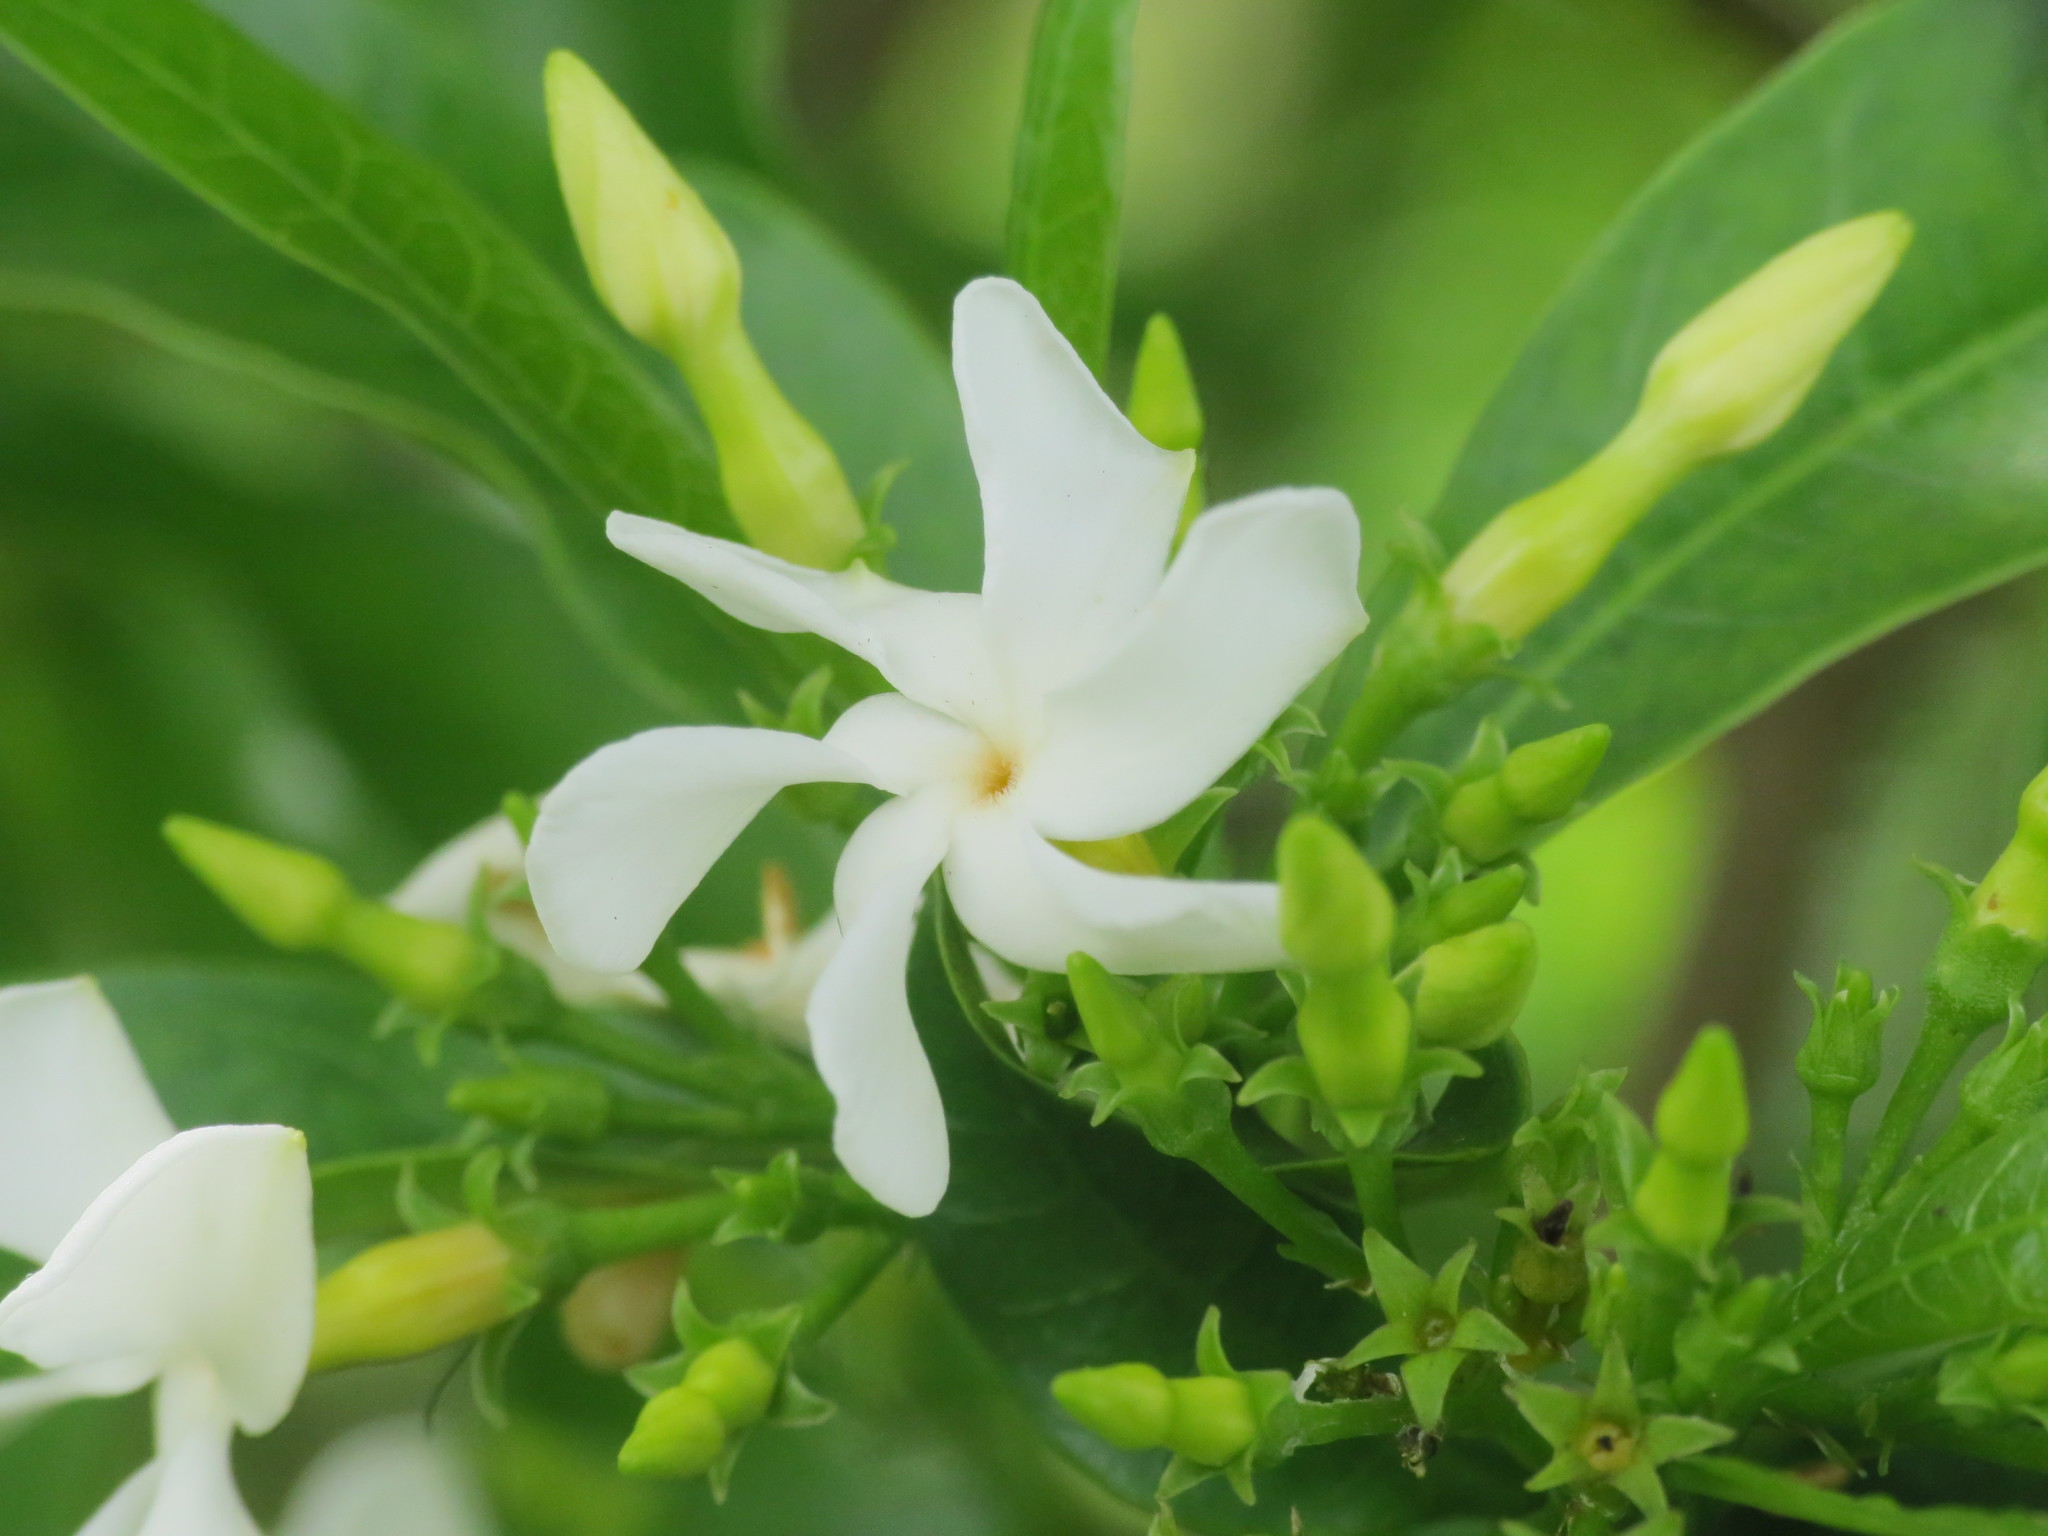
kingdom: Plantae
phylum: Tracheophyta
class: Magnoliopsida
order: Gentianales
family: Apocynaceae
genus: Tabernaemontana
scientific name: Tabernaemontana catharinensis
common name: Pinwheel-flower
